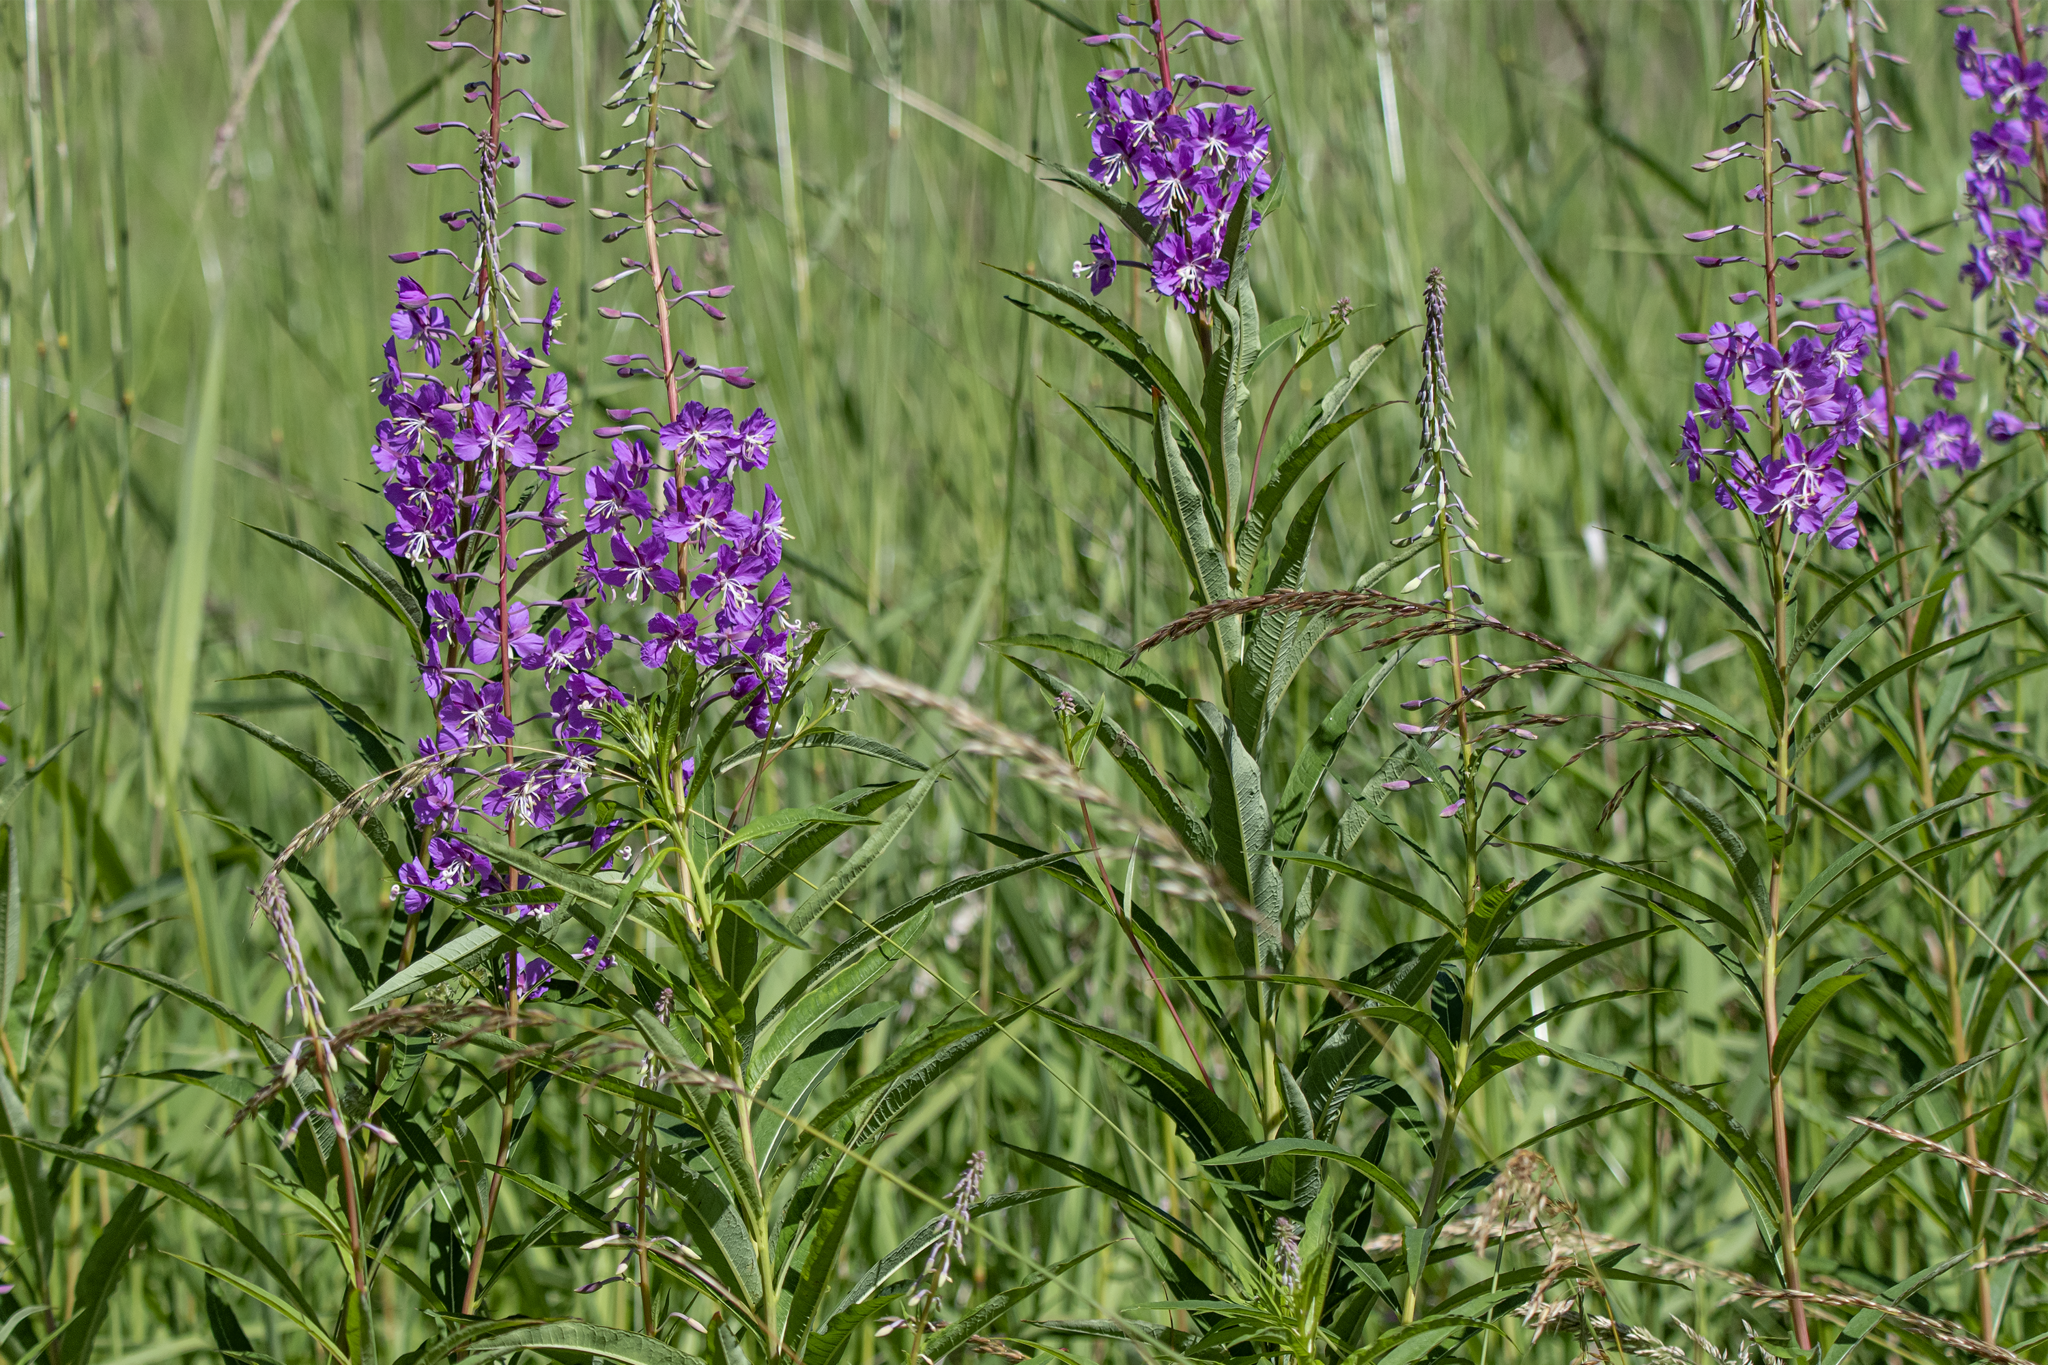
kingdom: Plantae
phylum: Tracheophyta
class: Magnoliopsida
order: Myrtales
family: Onagraceae
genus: Chamaenerion
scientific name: Chamaenerion angustifolium
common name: Fireweed
